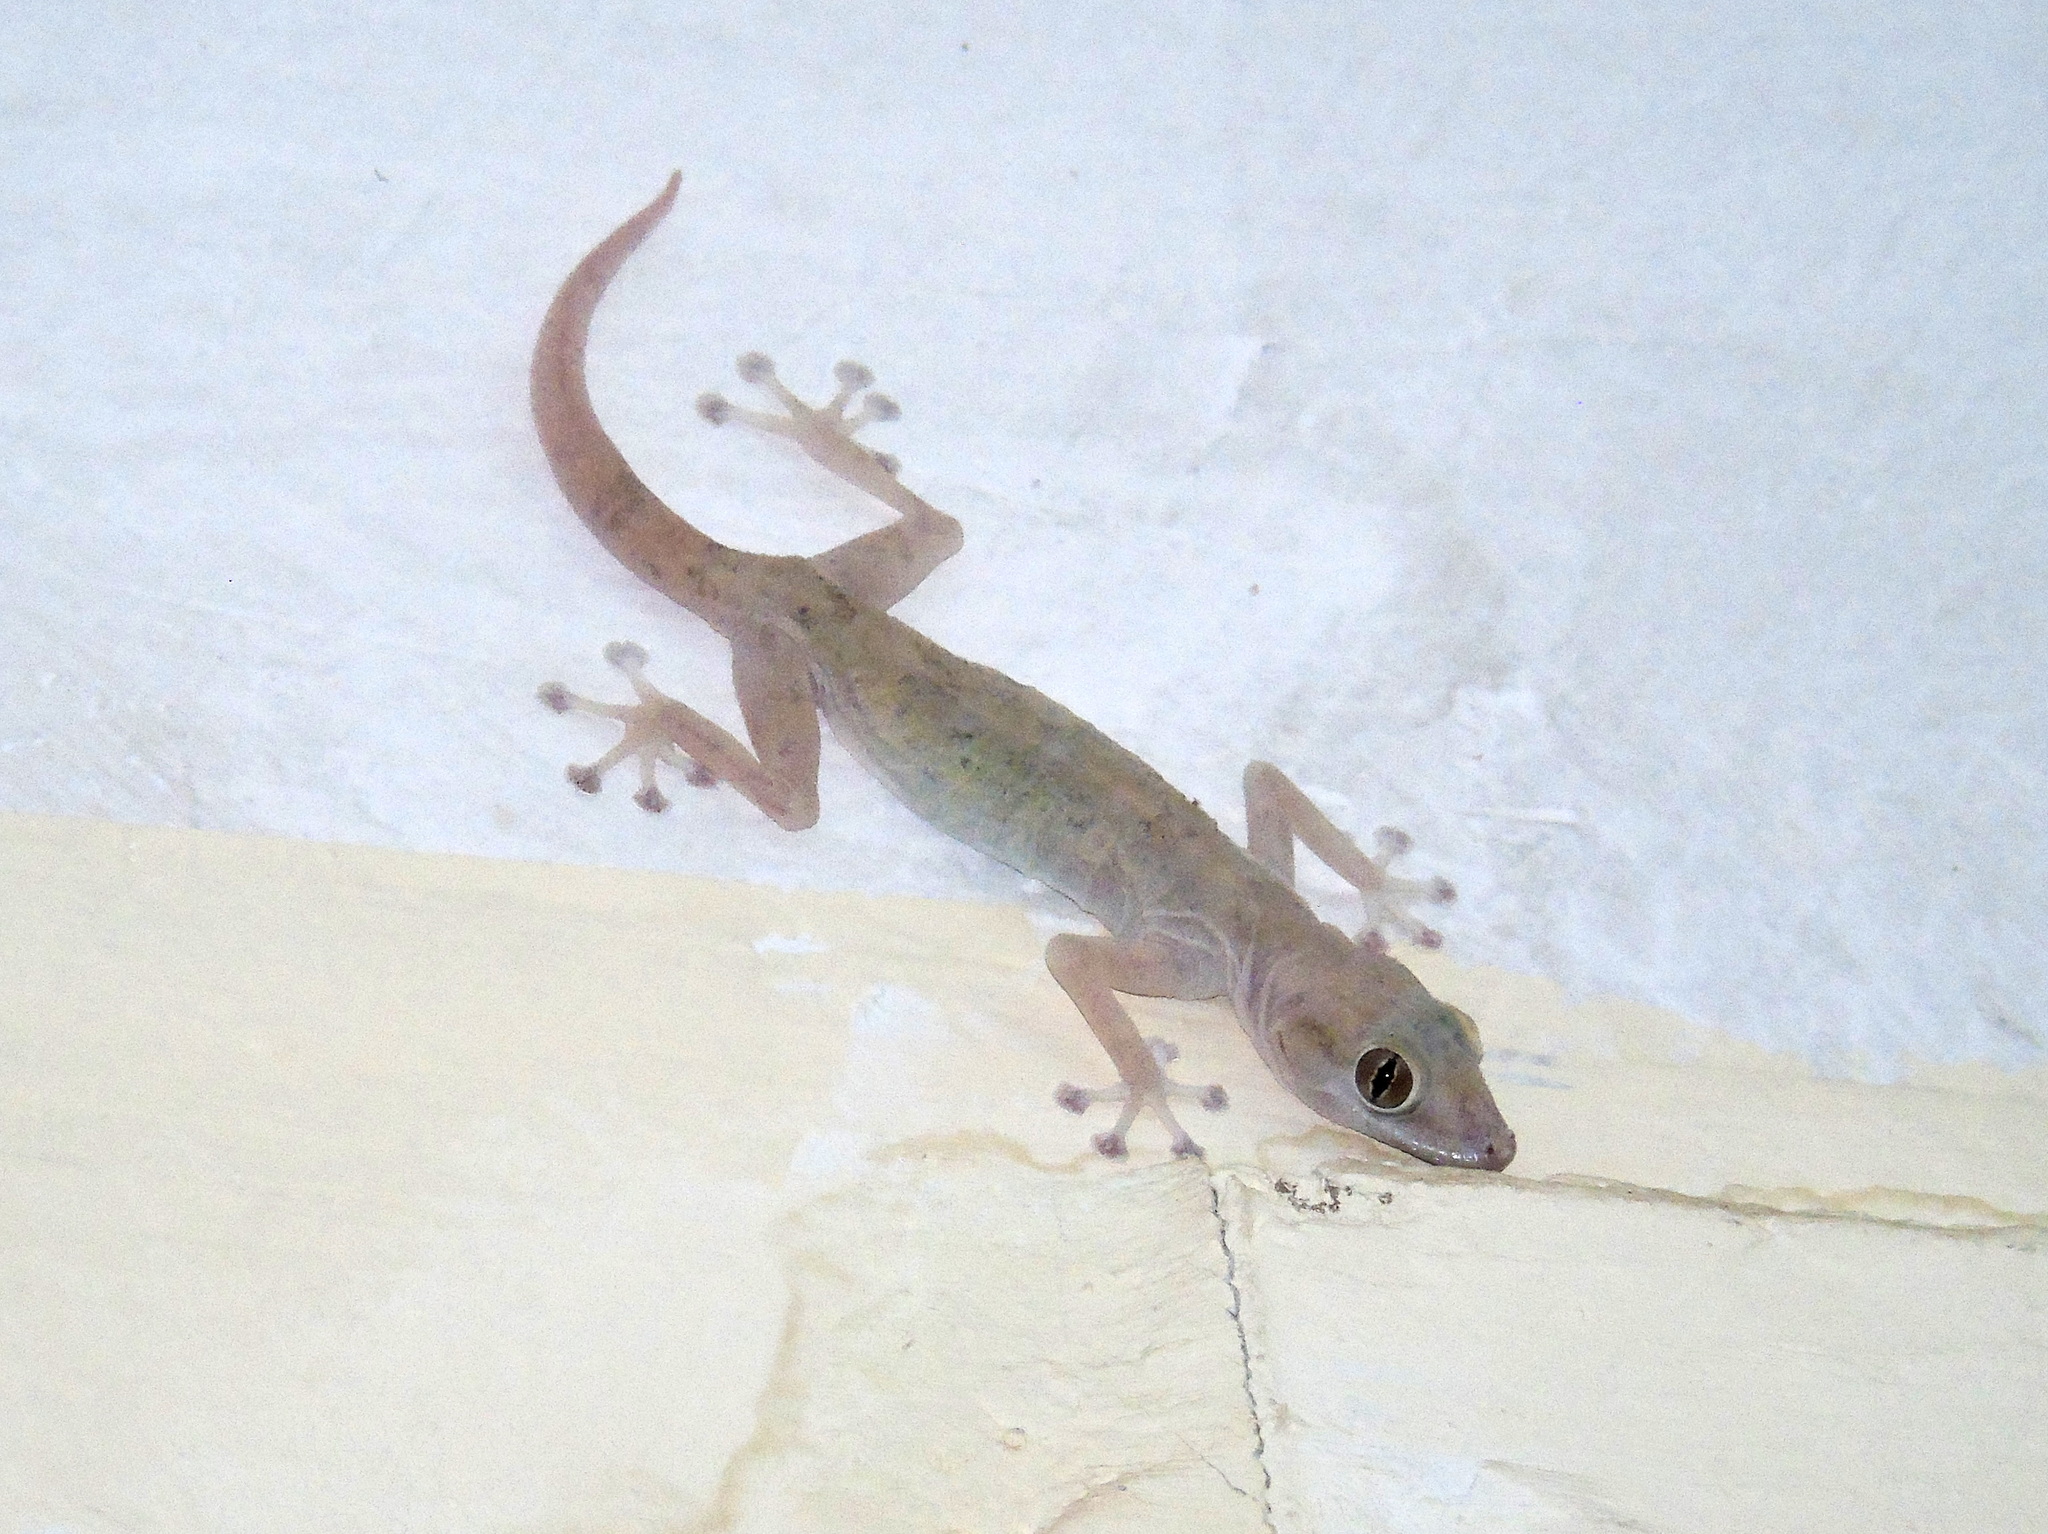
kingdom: Animalia
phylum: Chordata
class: Squamata
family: Phyllodactylidae
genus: Ptyodactylus
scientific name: Ptyodactylus hasselquistii
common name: Hasselquist’s fan-footed gecko
